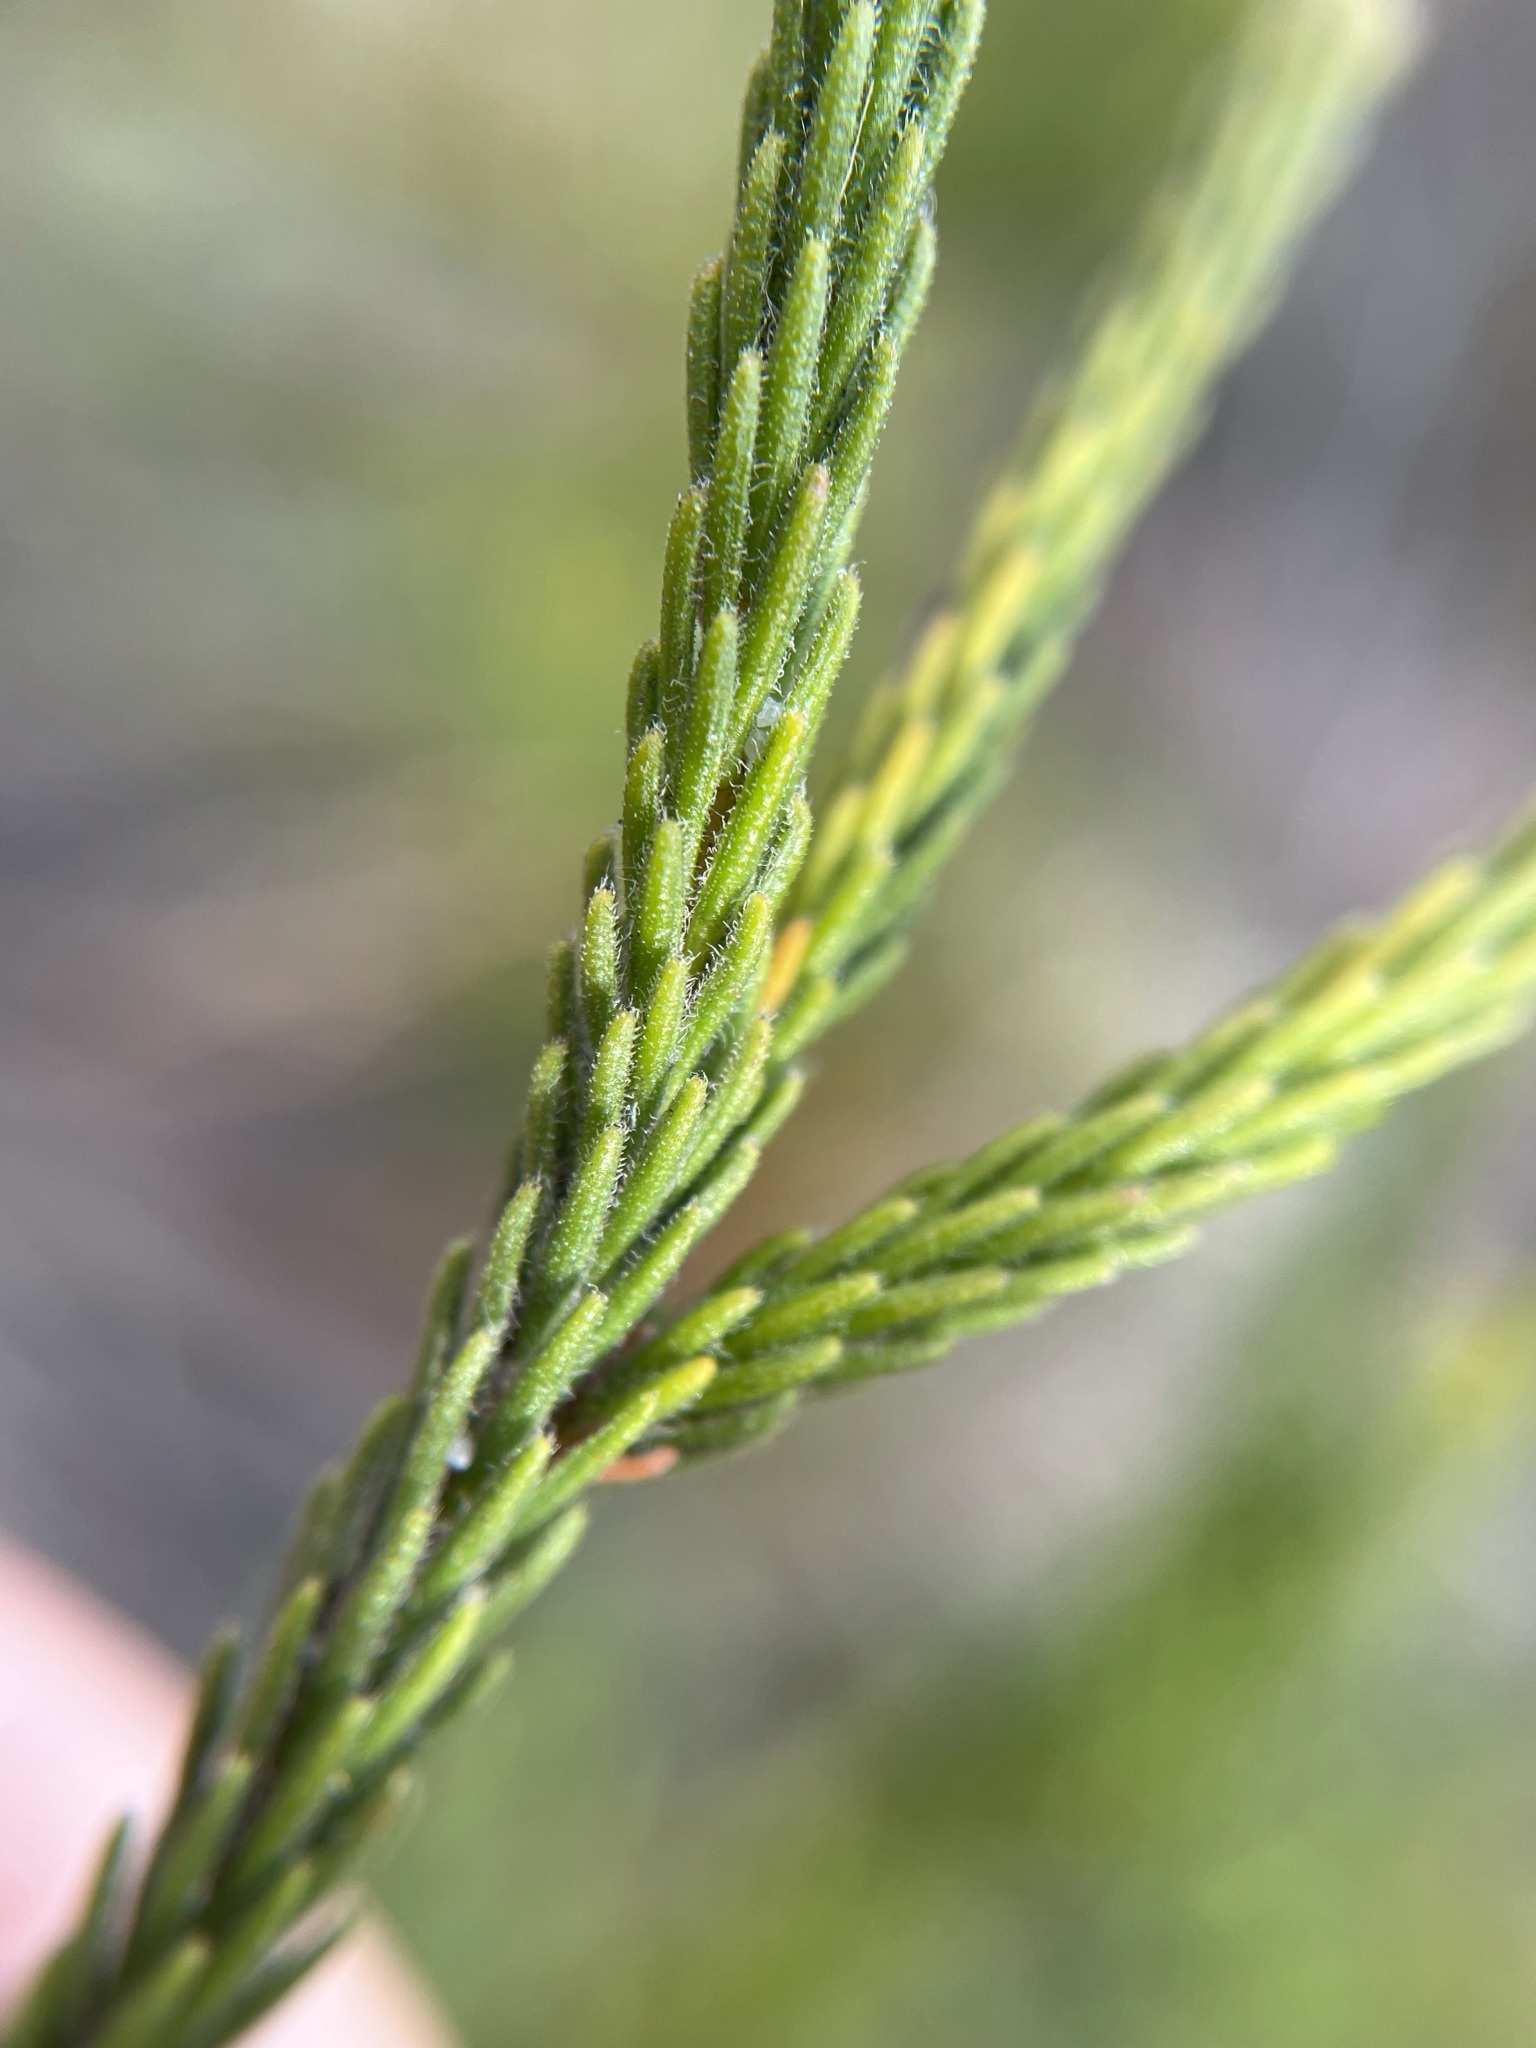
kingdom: Plantae
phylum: Tracheophyta
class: Magnoliopsida
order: Bruniales
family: Bruniaceae
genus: Audouinia
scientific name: Audouinia capitata
